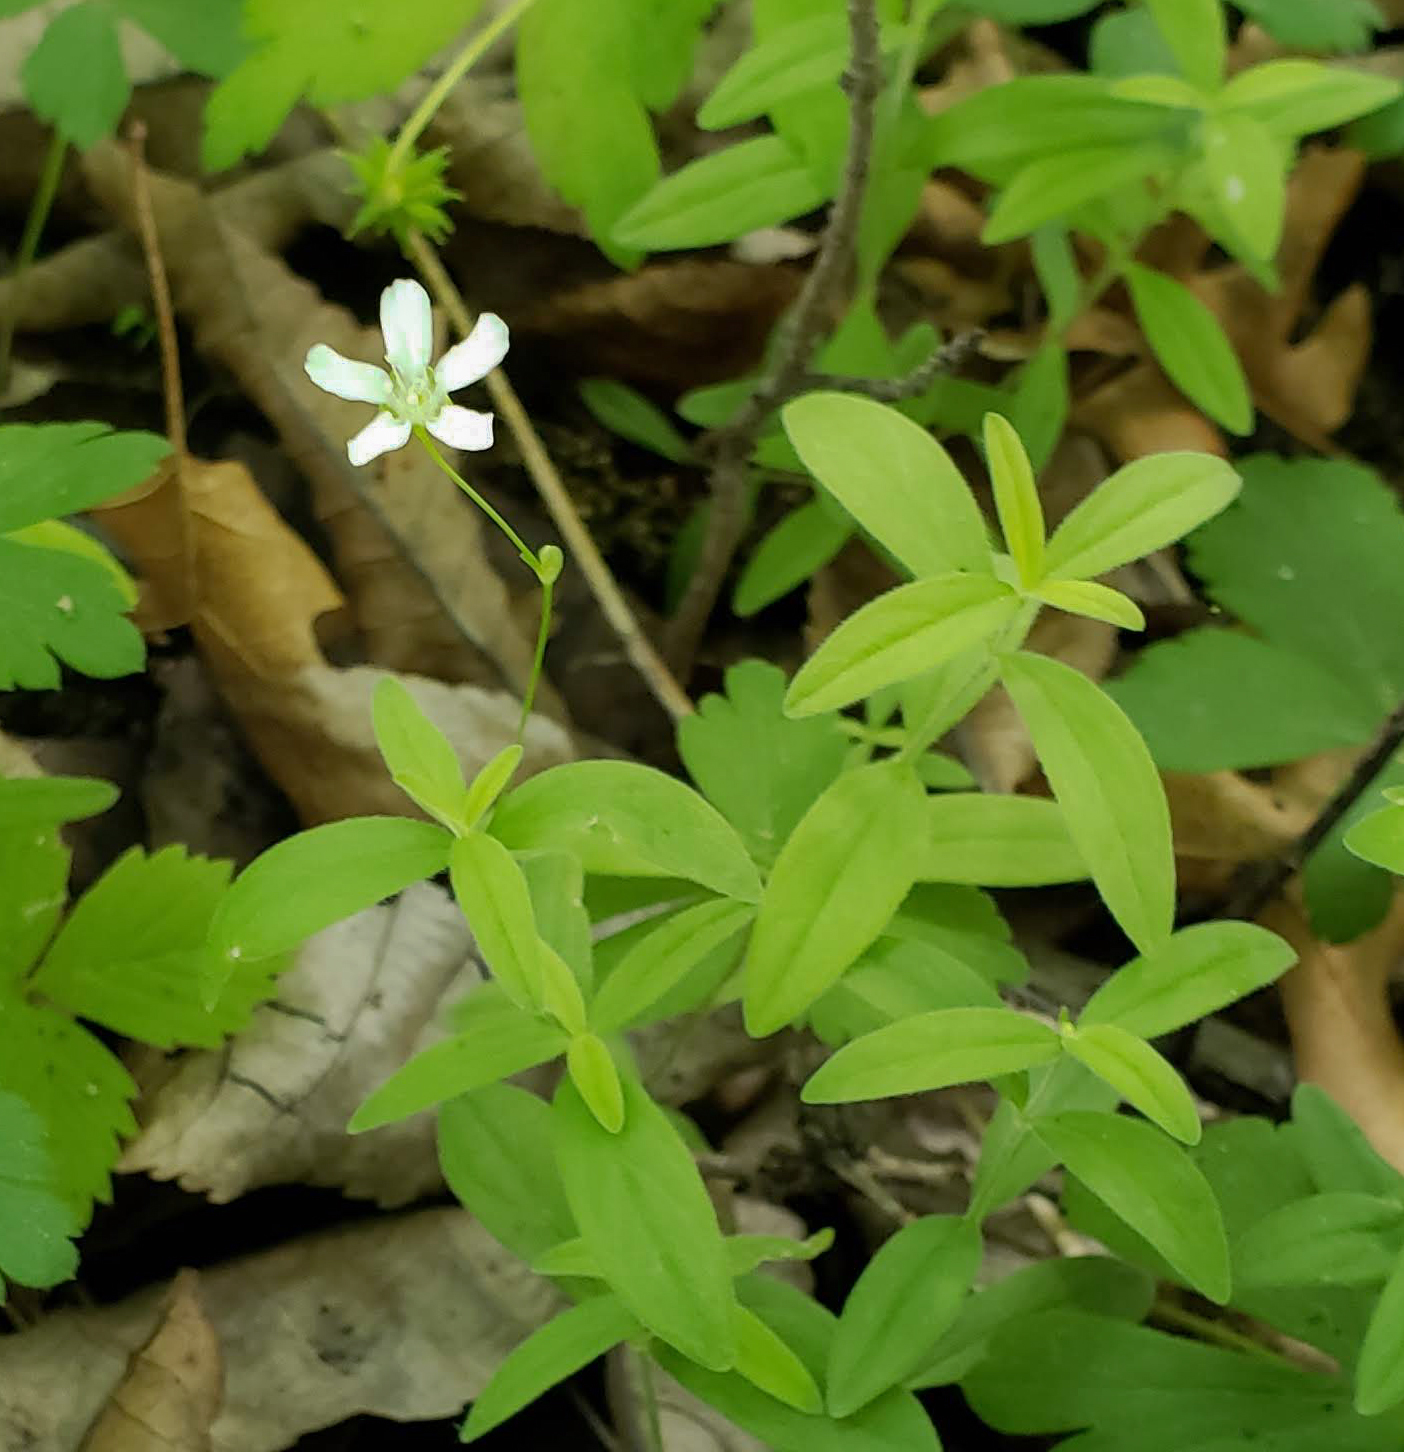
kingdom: Plantae
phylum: Tracheophyta
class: Magnoliopsida
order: Caryophyllales
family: Caryophyllaceae
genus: Moehringia
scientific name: Moehringia lateriflora
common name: Blunt-leaved sandwort
